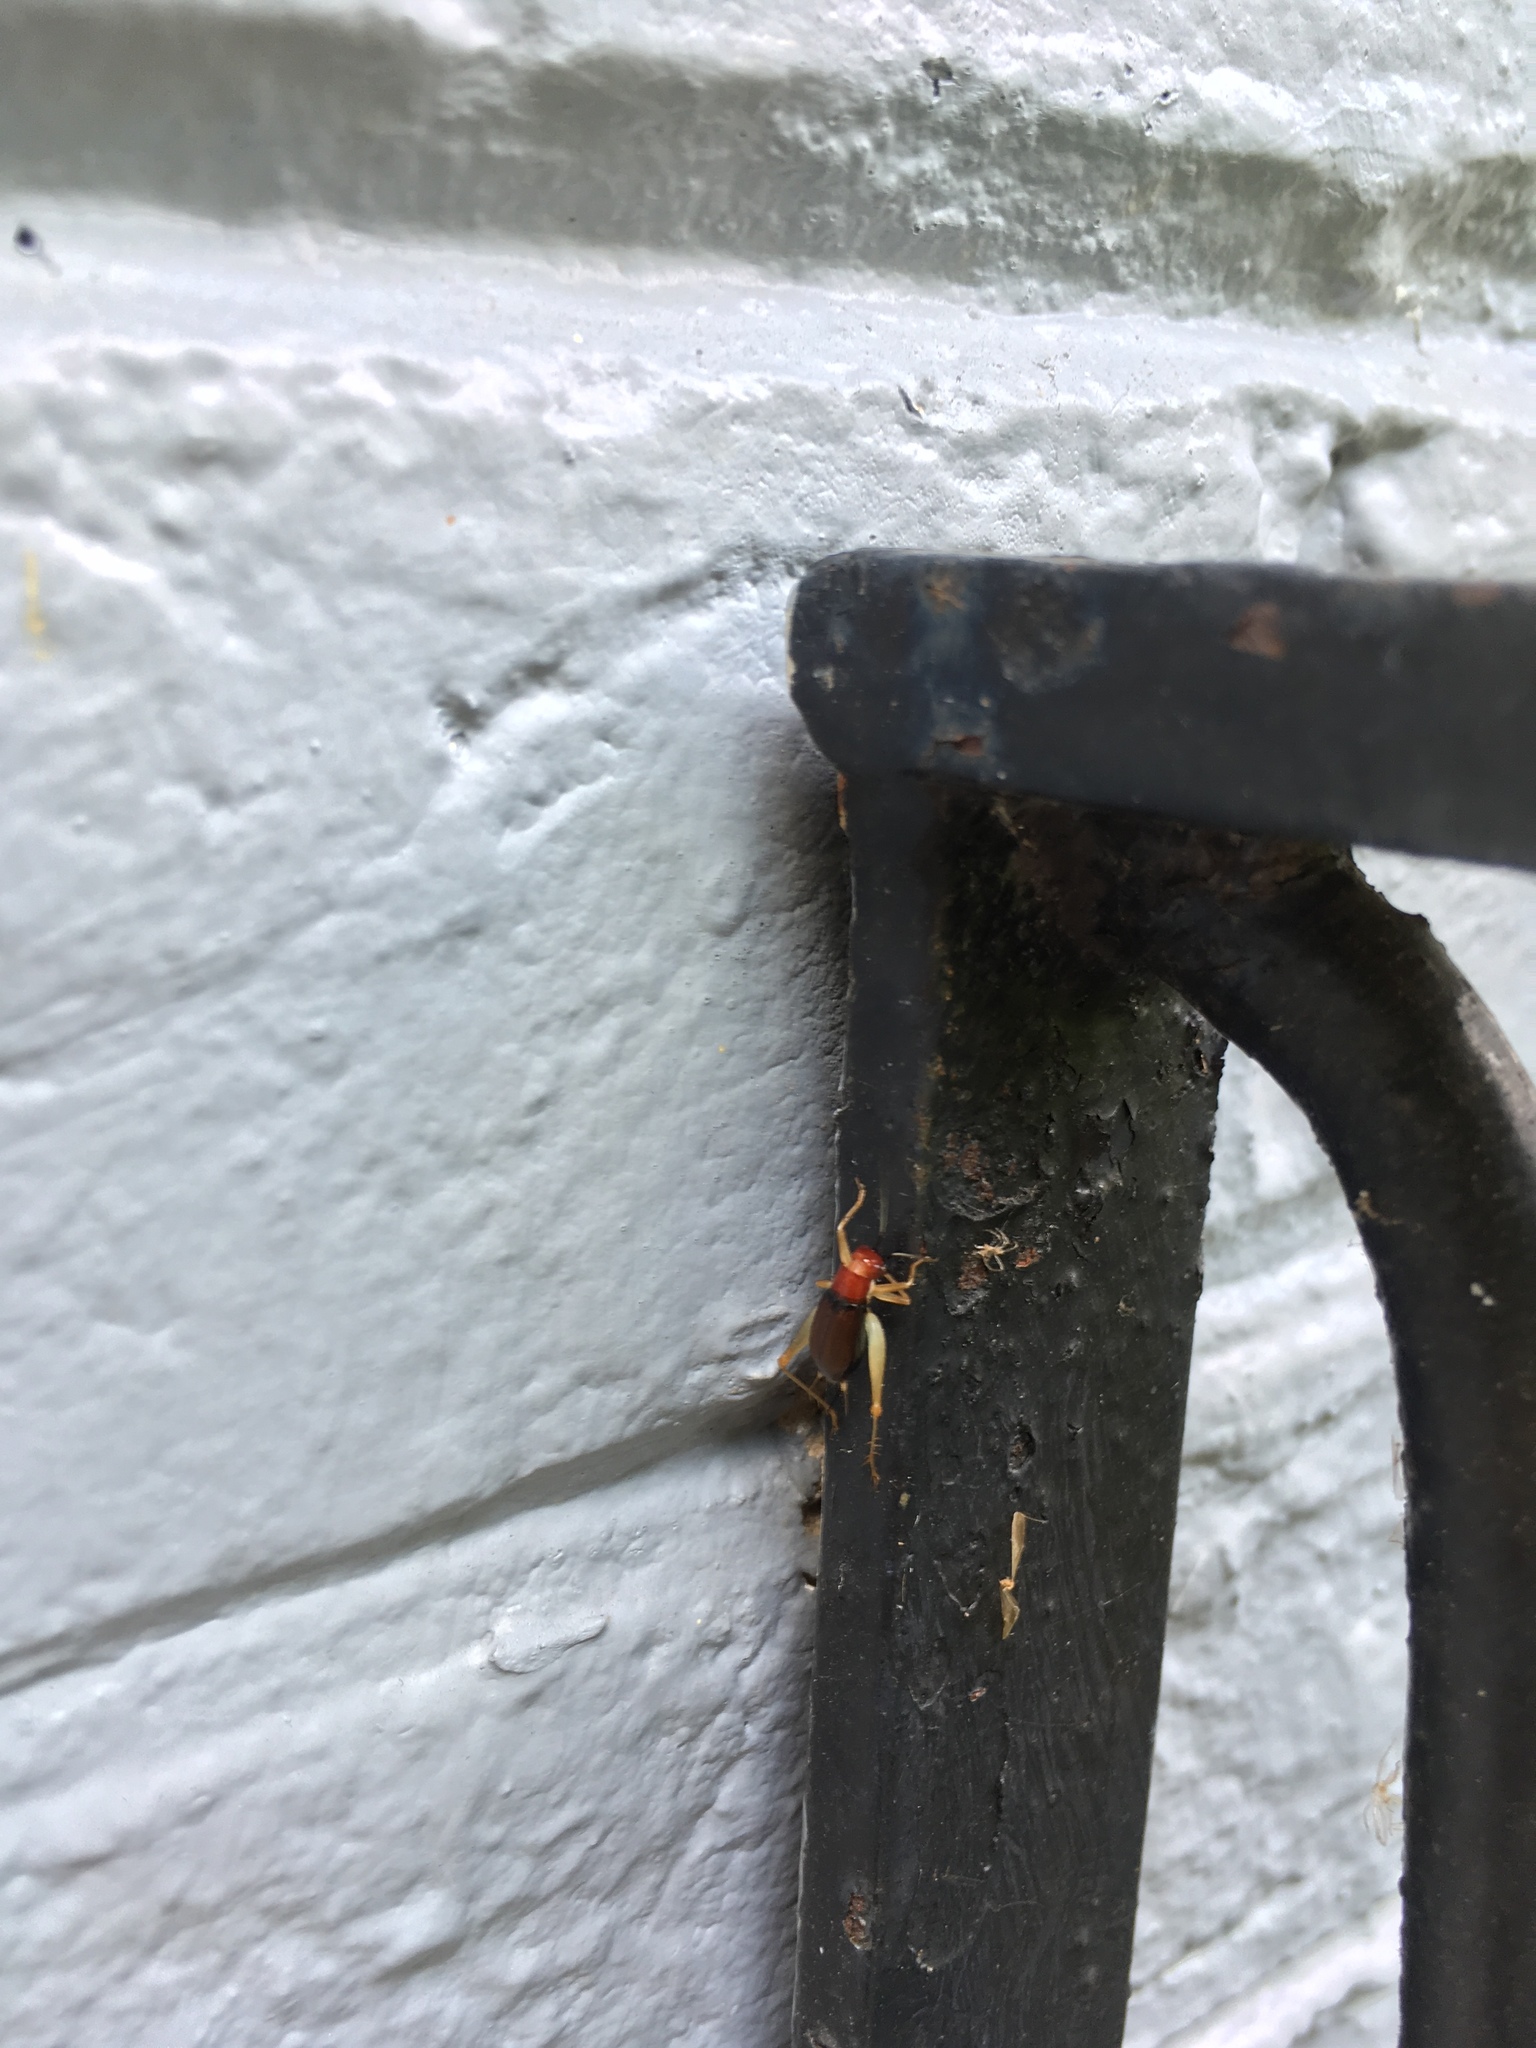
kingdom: Animalia
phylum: Arthropoda
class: Insecta
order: Orthoptera
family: Trigonidiidae
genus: Phyllopalpus
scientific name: Phyllopalpus pulchellus
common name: Handsome trig
